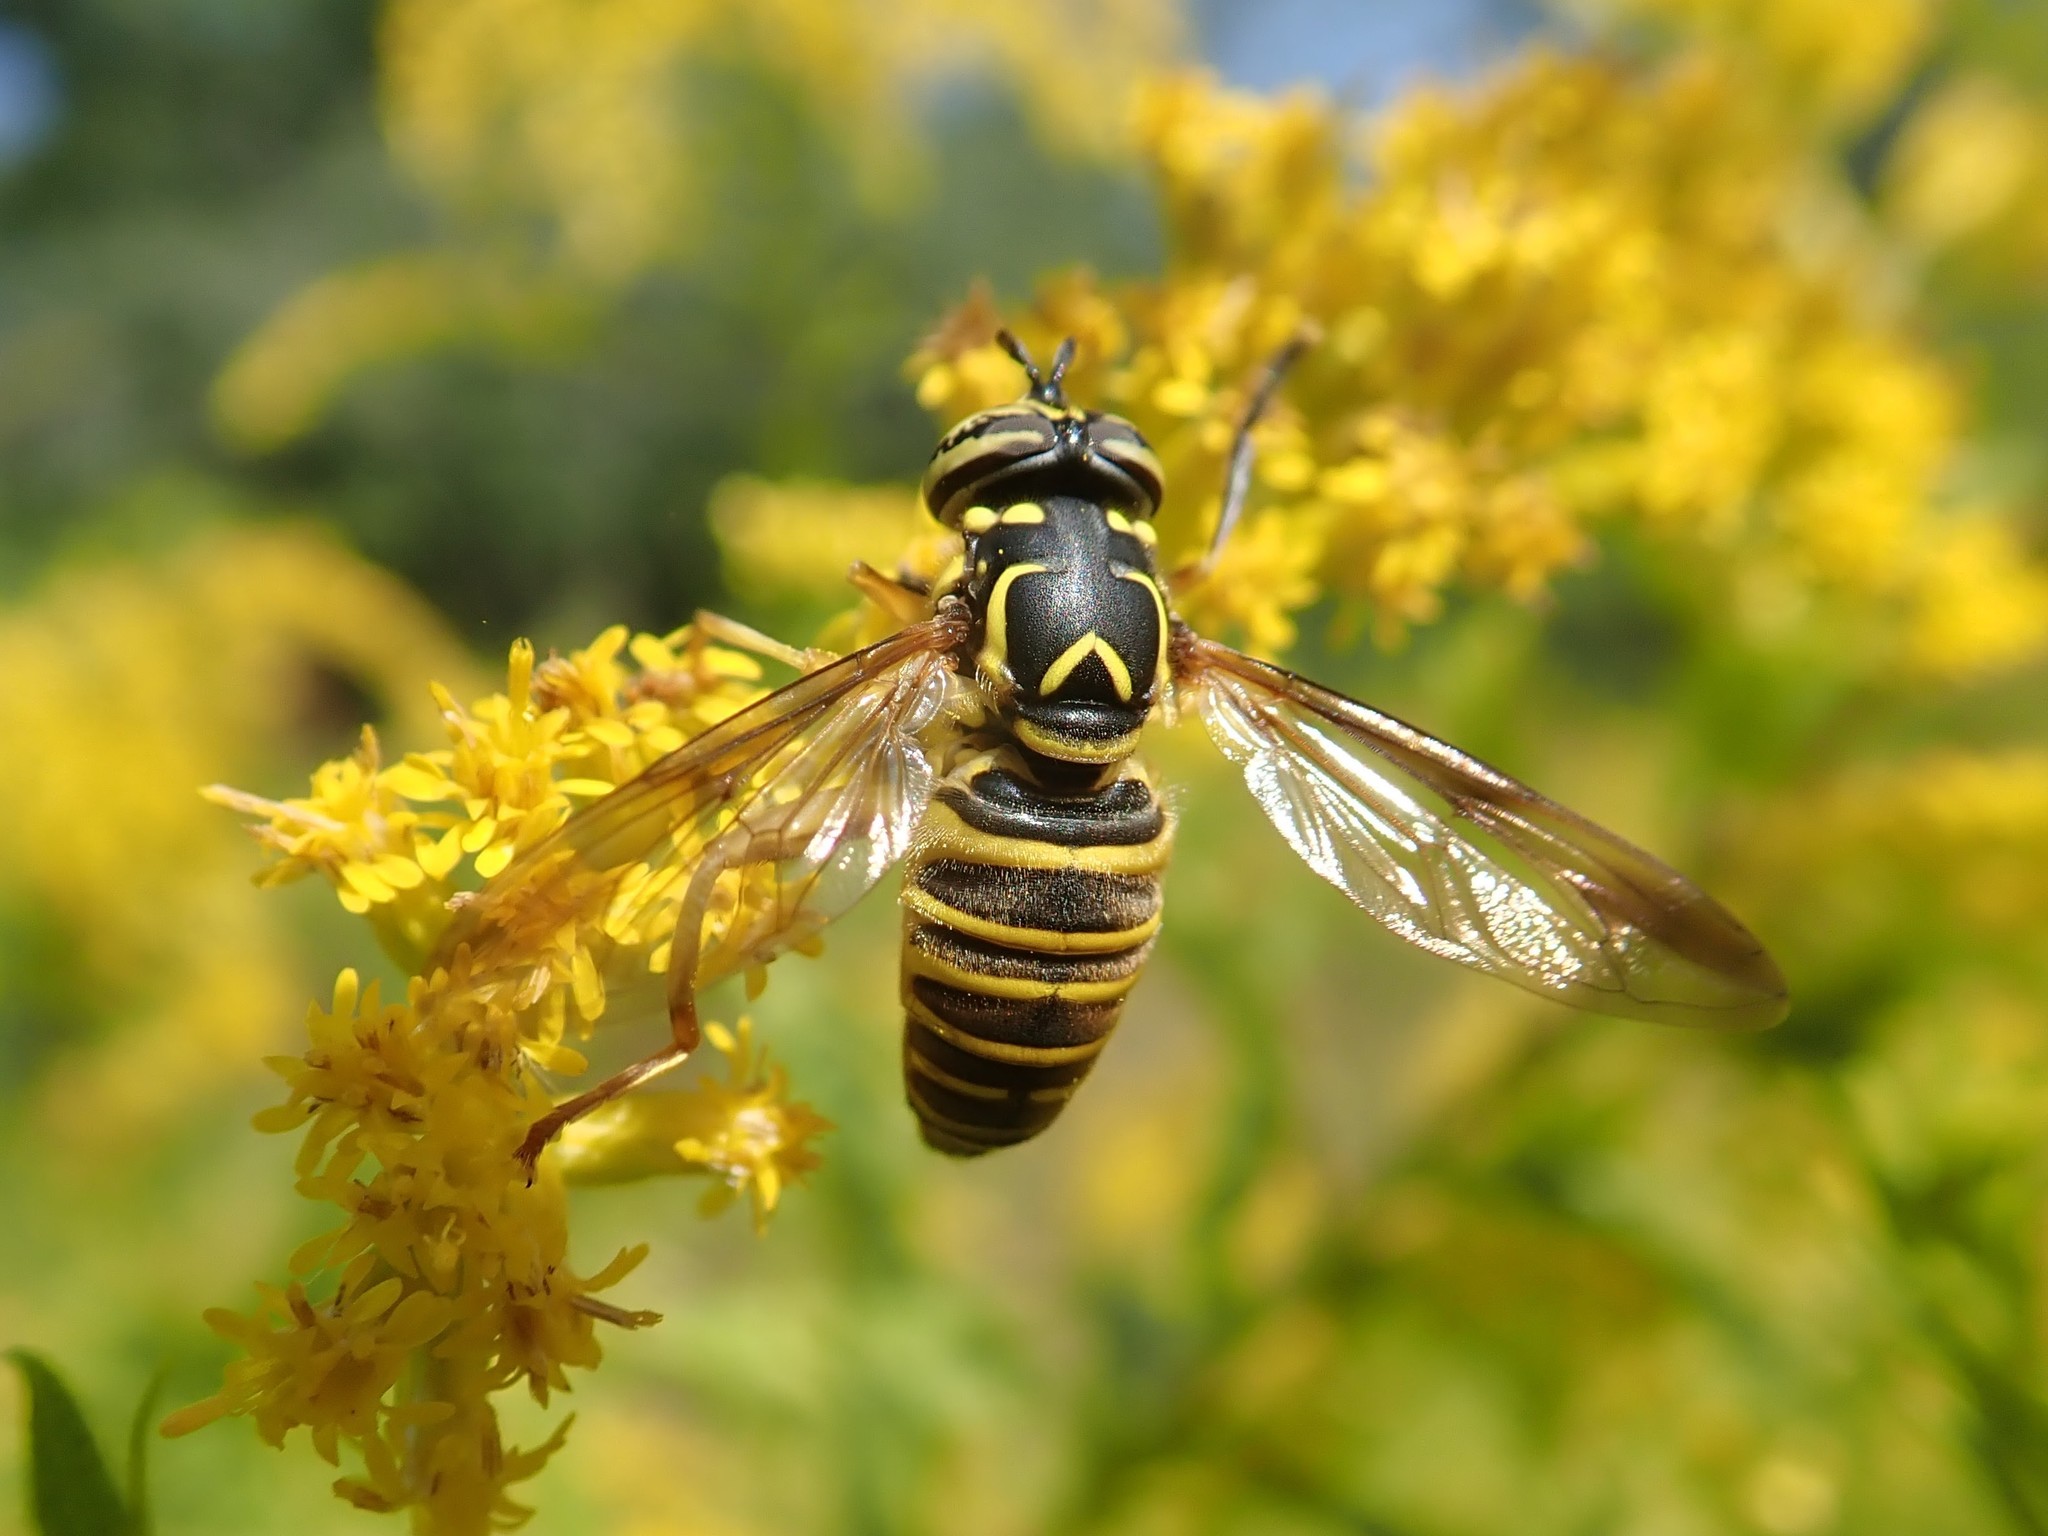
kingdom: Animalia
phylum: Arthropoda
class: Insecta
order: Diptera
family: Syrphidae
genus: Spilomyia
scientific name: Spilomyia longicornis
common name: Eastern hornet fly
